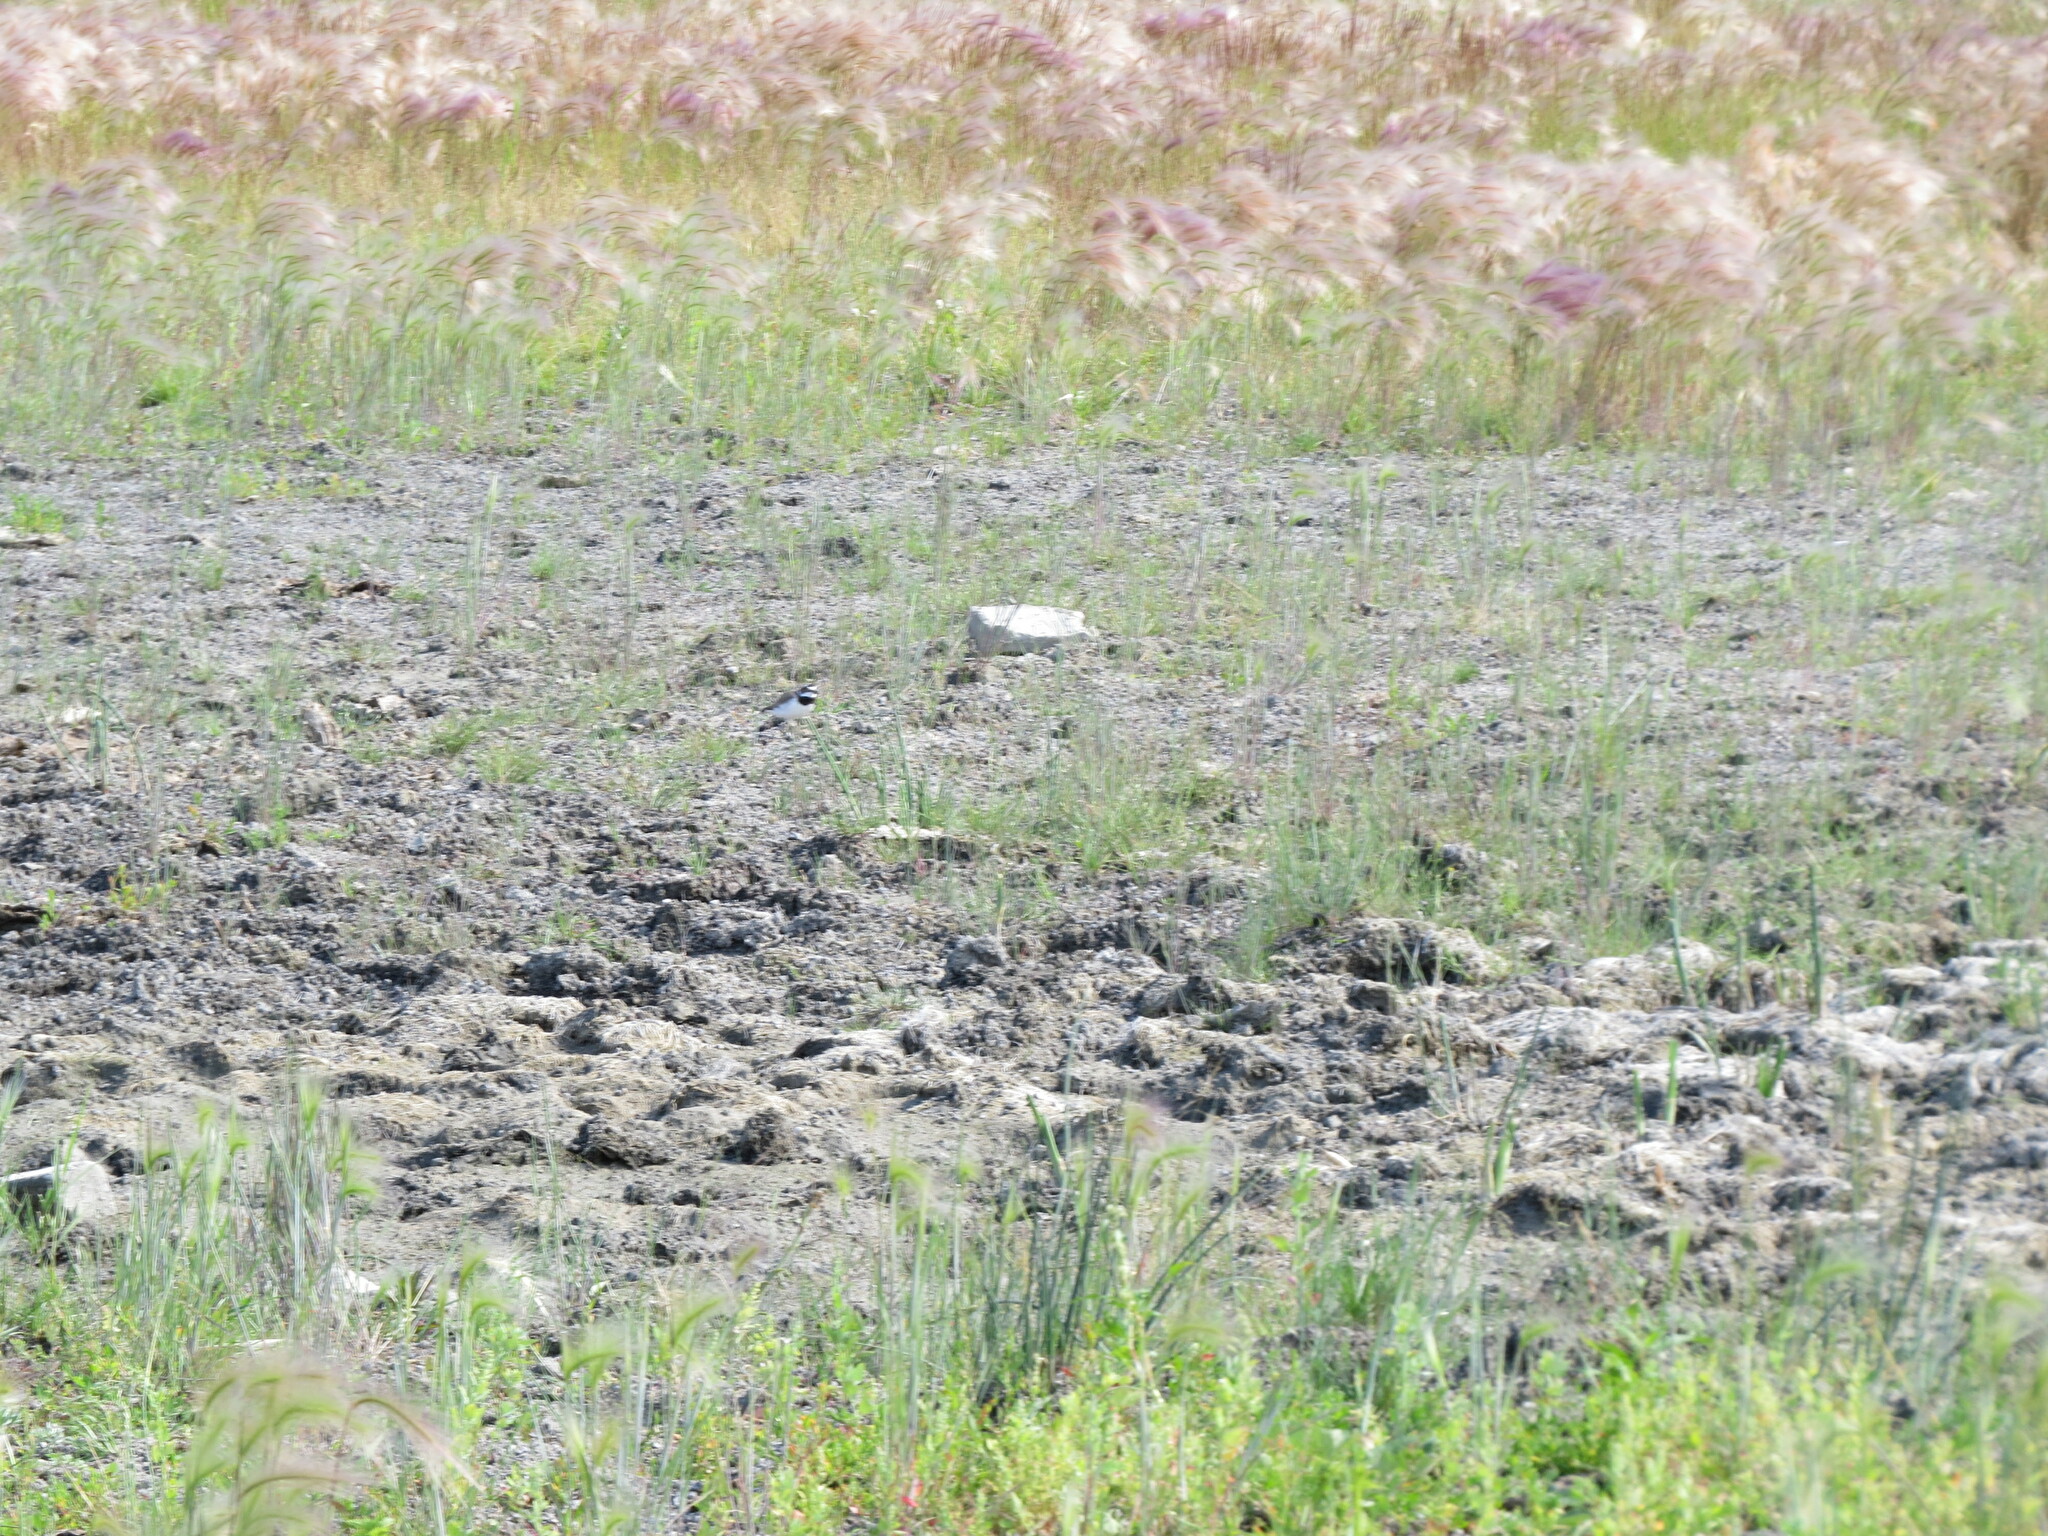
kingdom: Animalia
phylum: Chordata
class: Aves
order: Charadriiformes
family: Charadriidae
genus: Charadrius
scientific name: Charadrius dubius
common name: Little ringed plover
